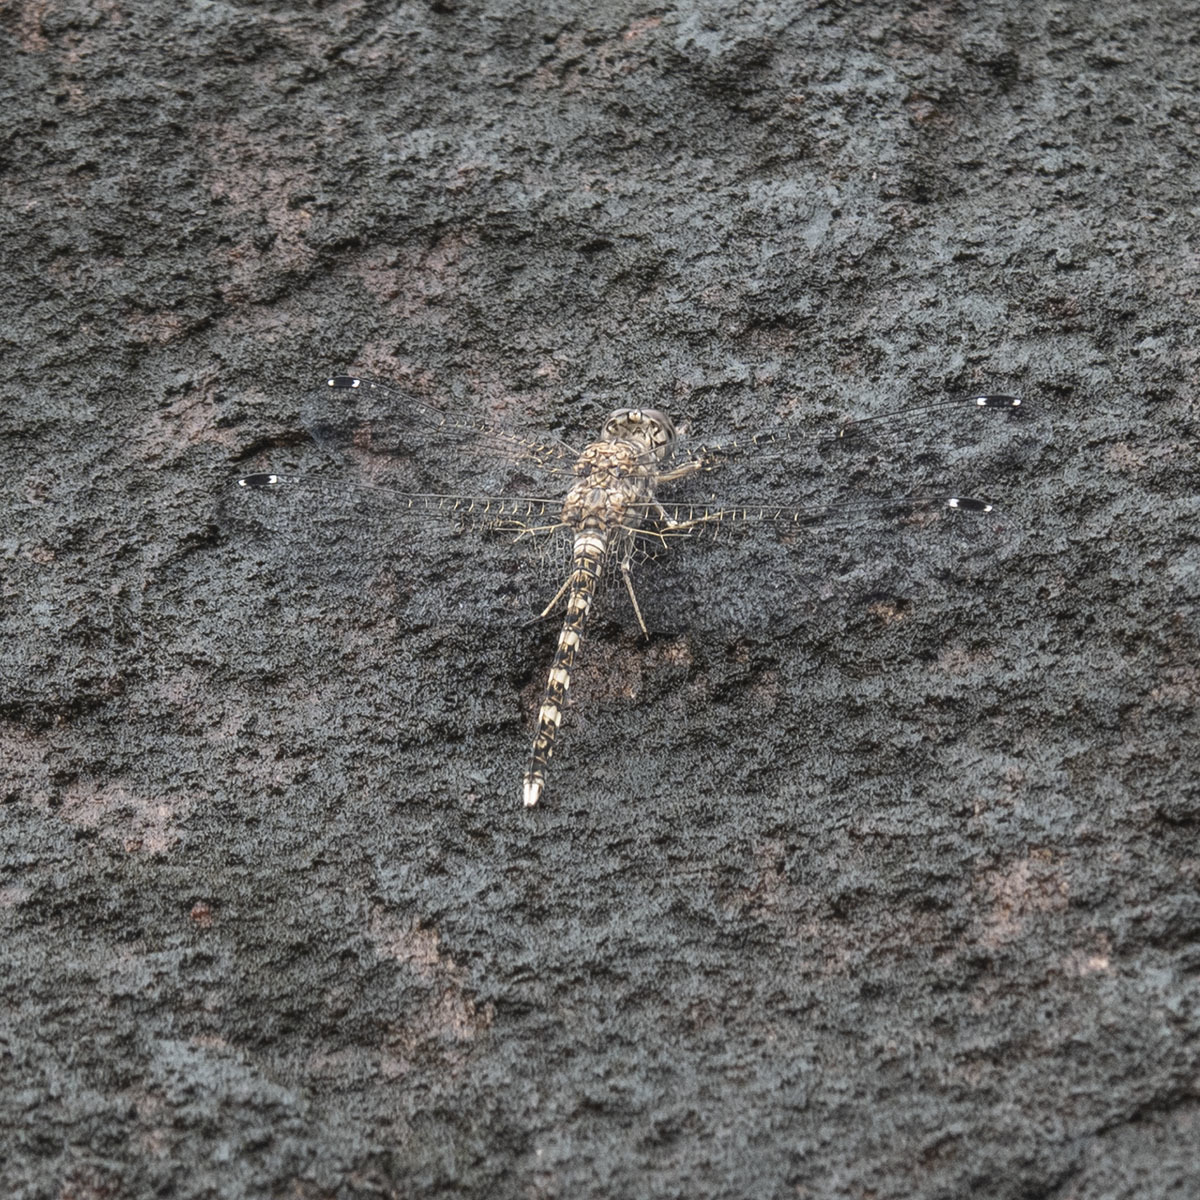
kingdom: Animalia
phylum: Arthropoda
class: Insecta
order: Odonata
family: Libellulidae
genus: Bradinopyga
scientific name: Bradinopyga geminata
